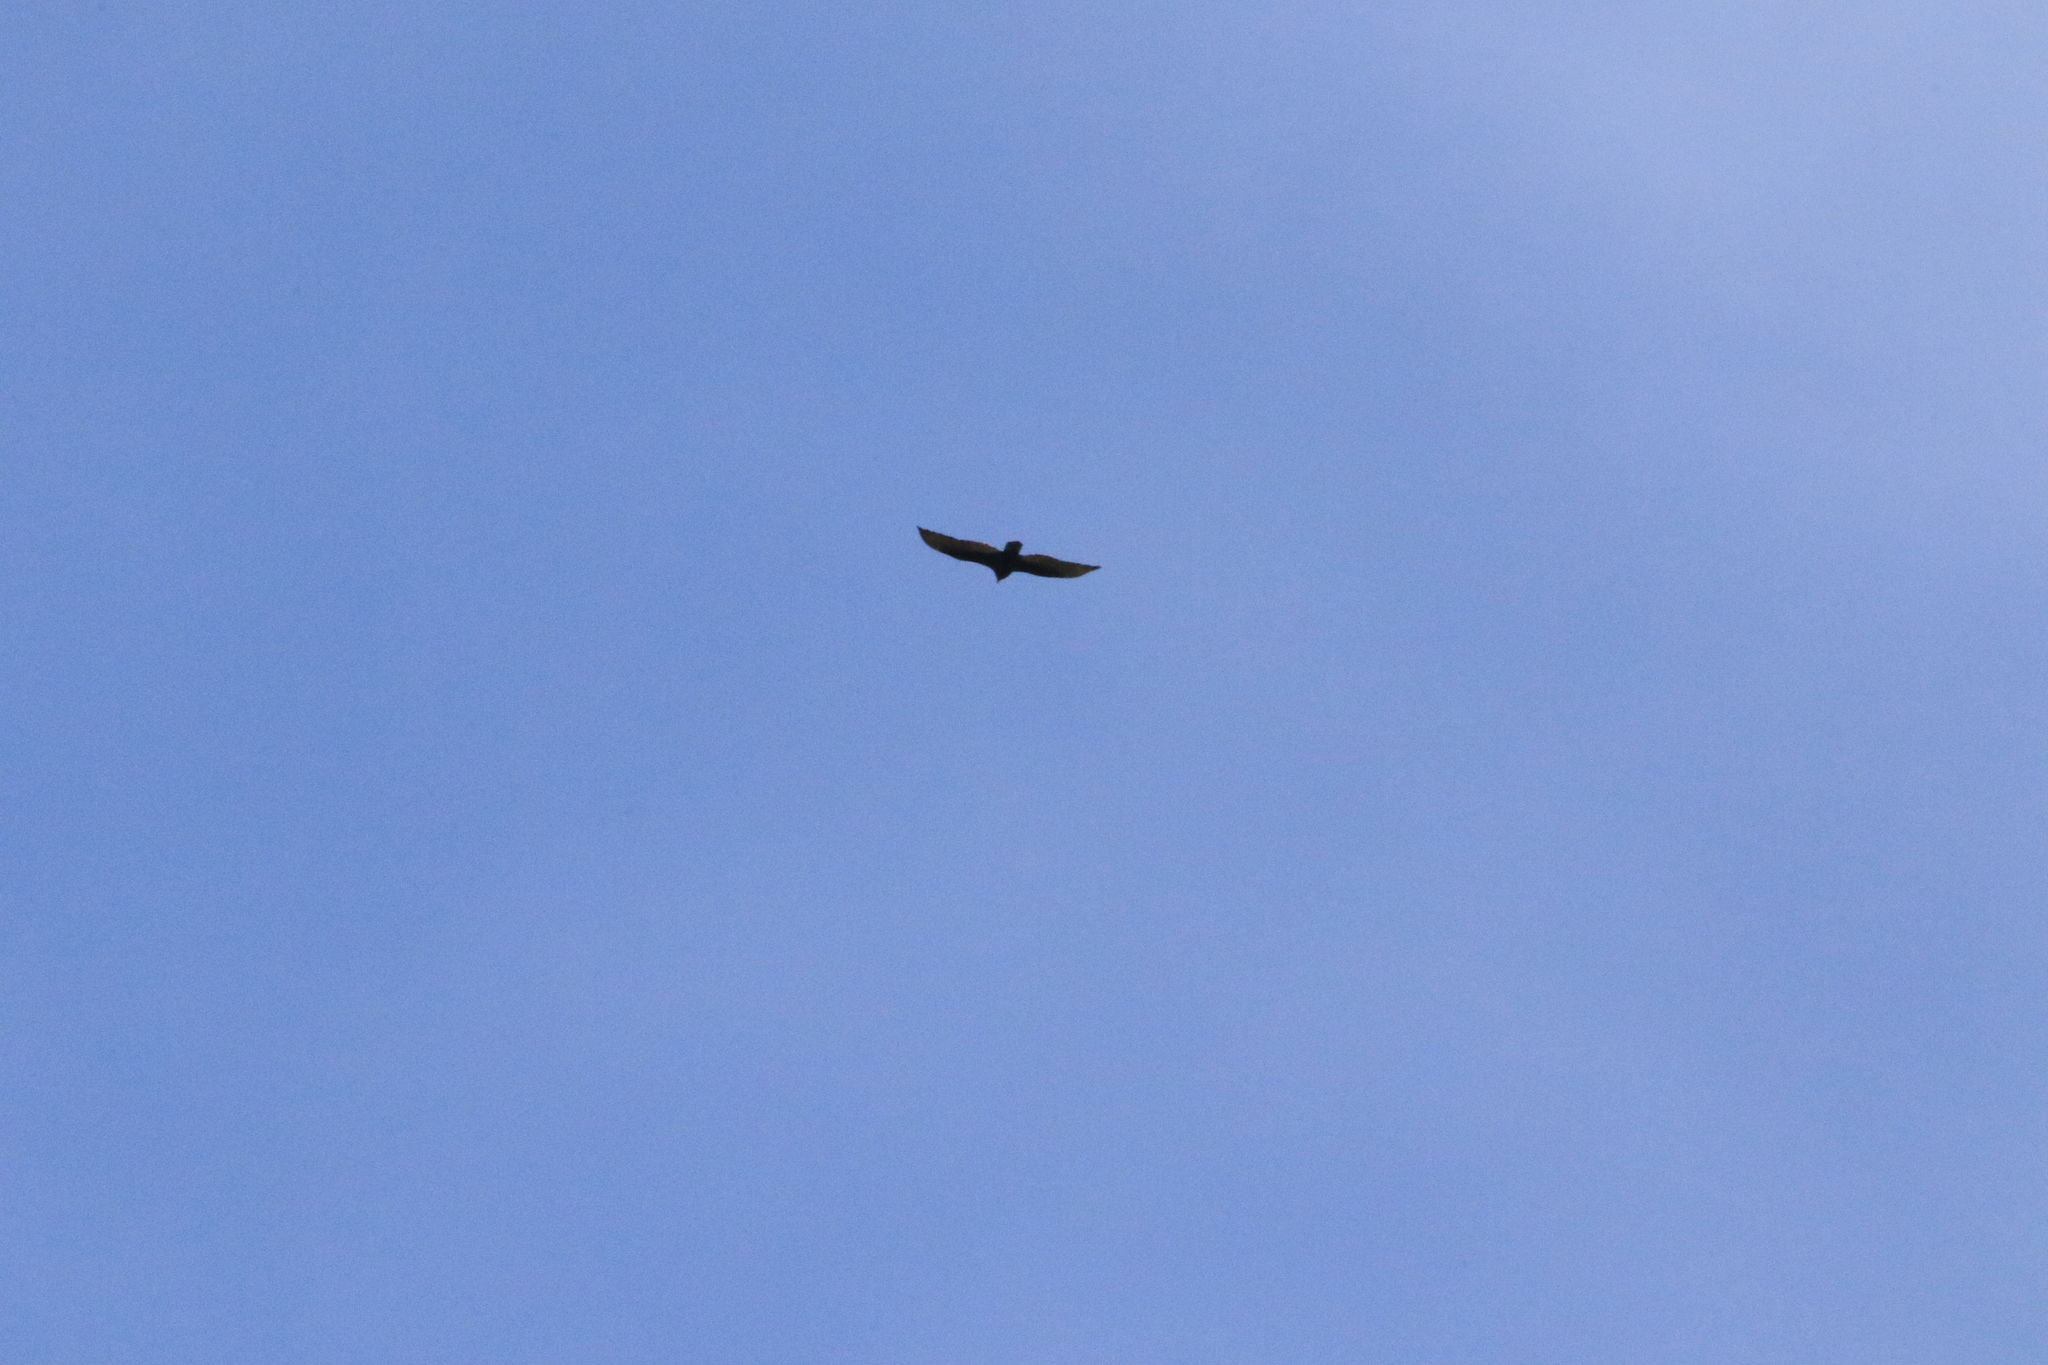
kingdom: Animalia
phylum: Chordata
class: Aves
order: Accipitriformes
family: Cathartidae
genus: Cathartes
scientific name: Cathartes aura
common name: Turkey vulture
